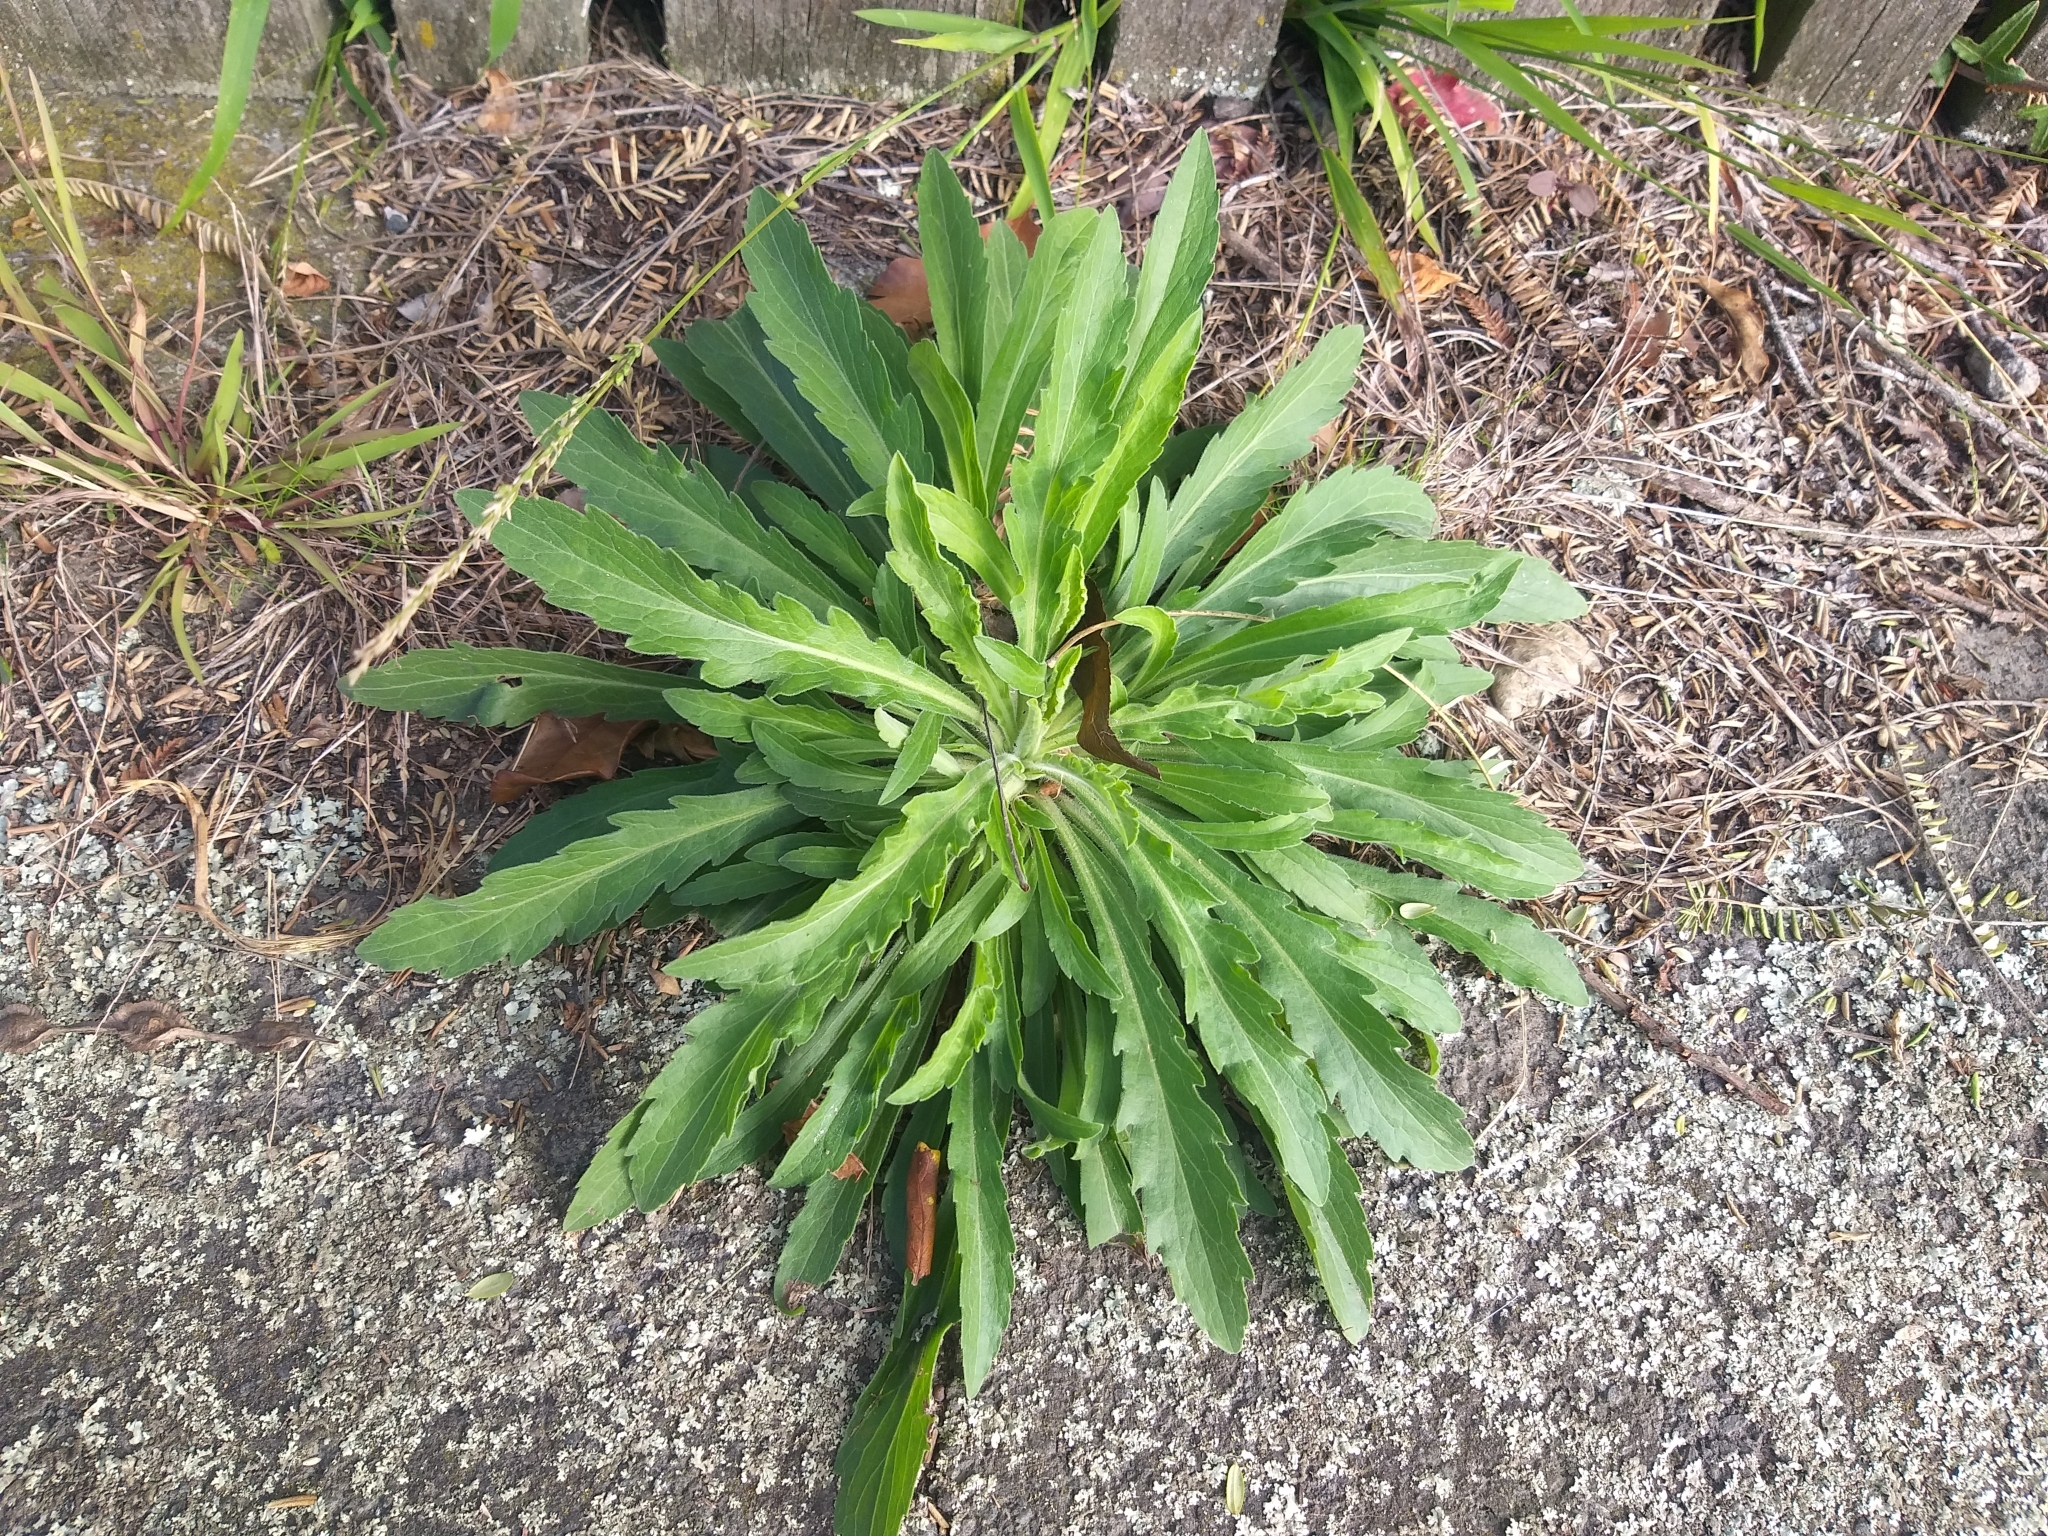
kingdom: Plantae
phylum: Tracheophyta
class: Magnoliopsida
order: Asterales
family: Asteraceae
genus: Erigeron
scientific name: Erigeron sumatrensis
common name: Daisy
